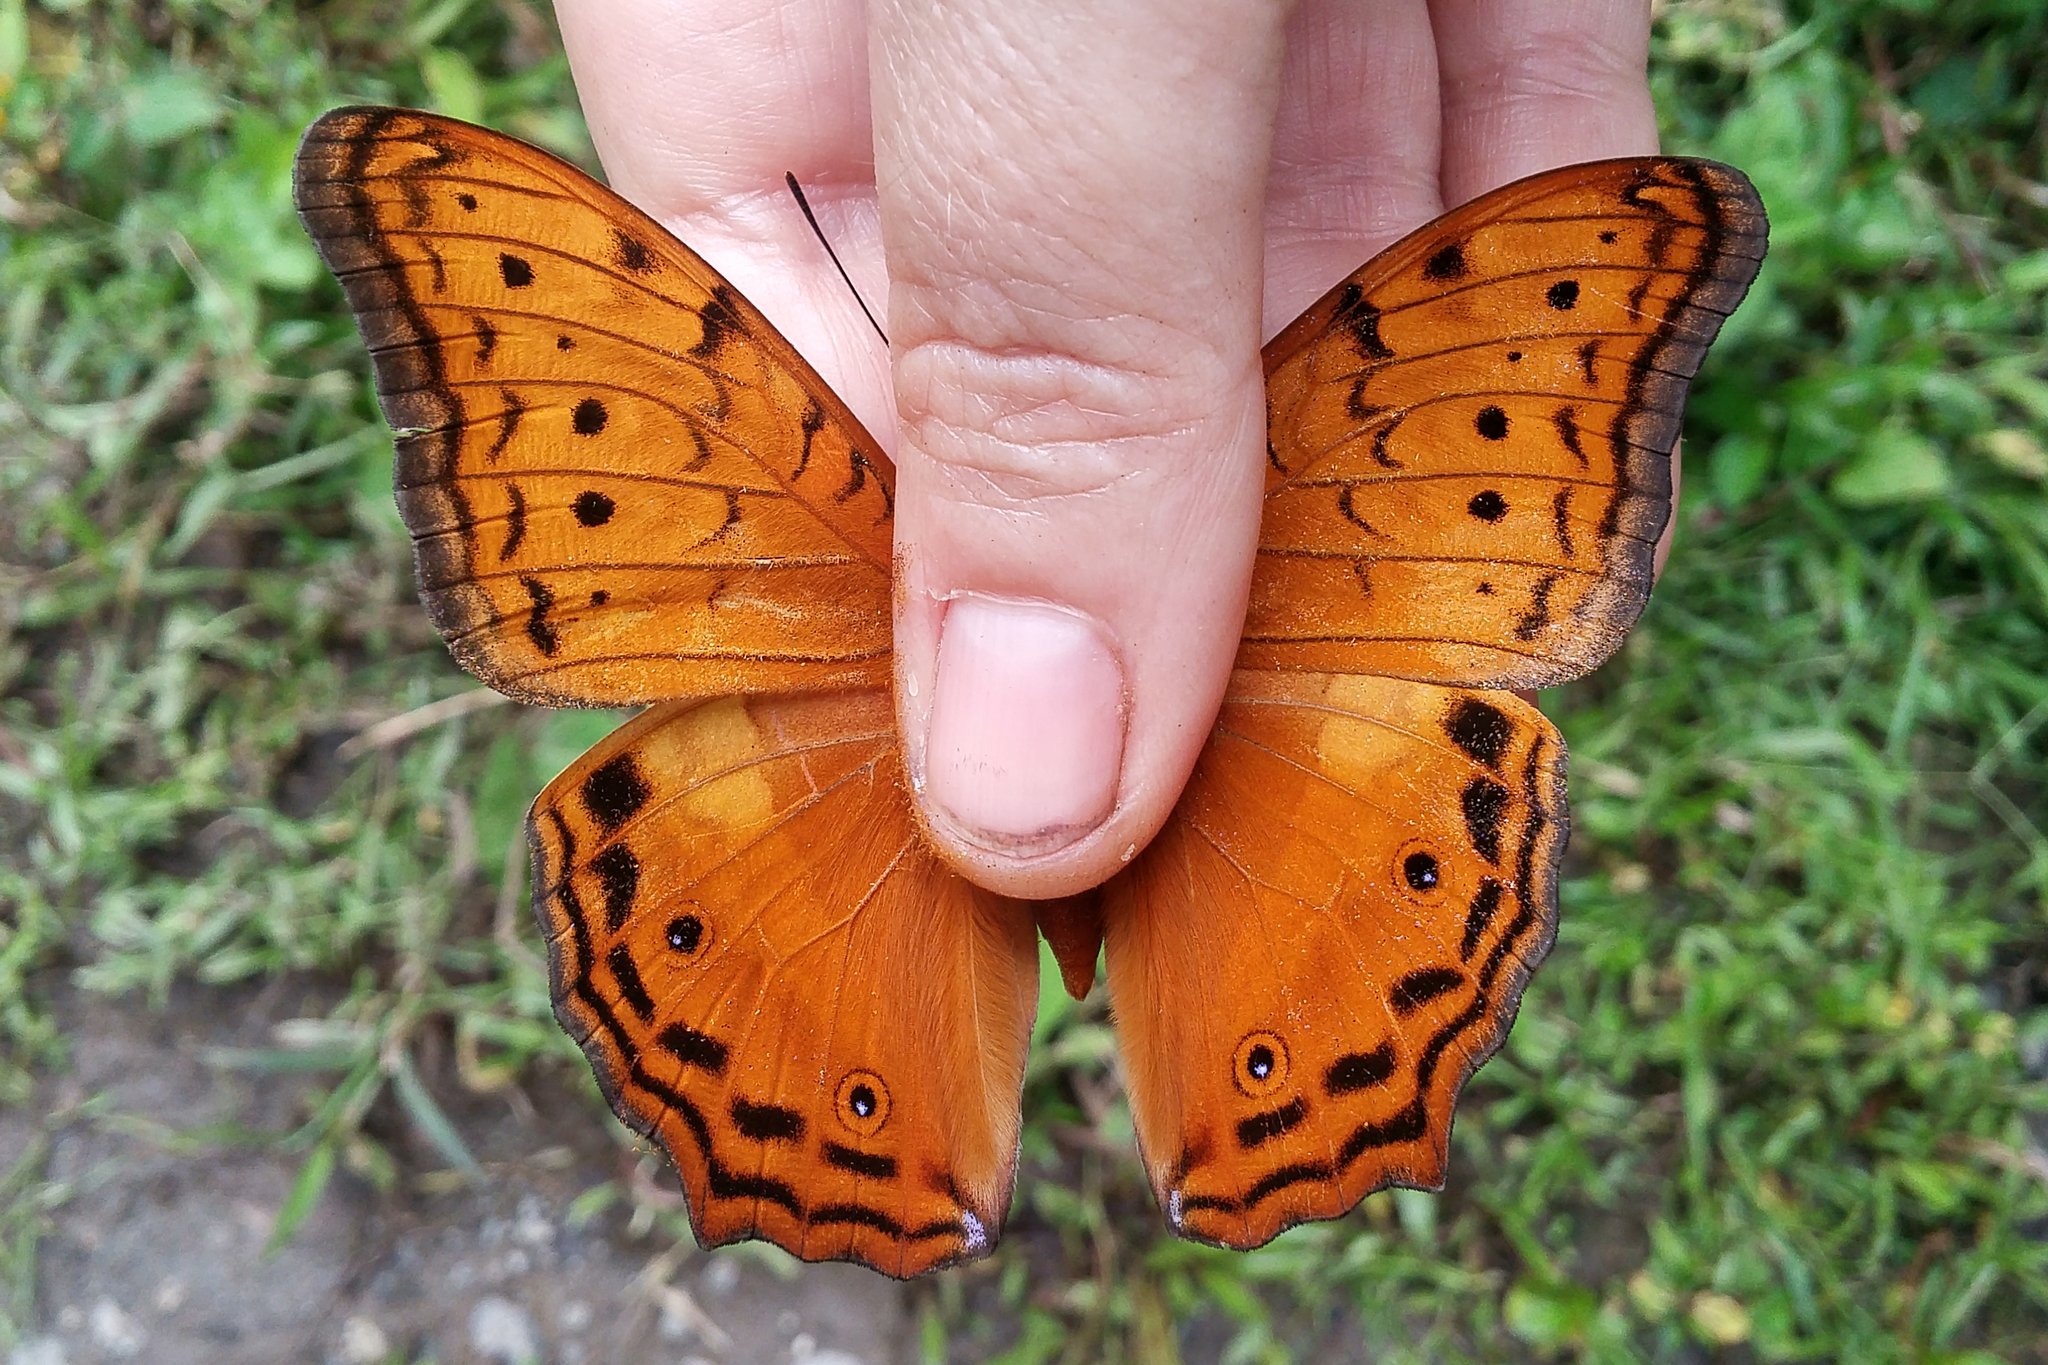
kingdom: Animalia
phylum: Arthropoda
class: Insecta
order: Lepidoptera
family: Nymphalidae
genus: Vindula
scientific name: Vindula arsinoe
